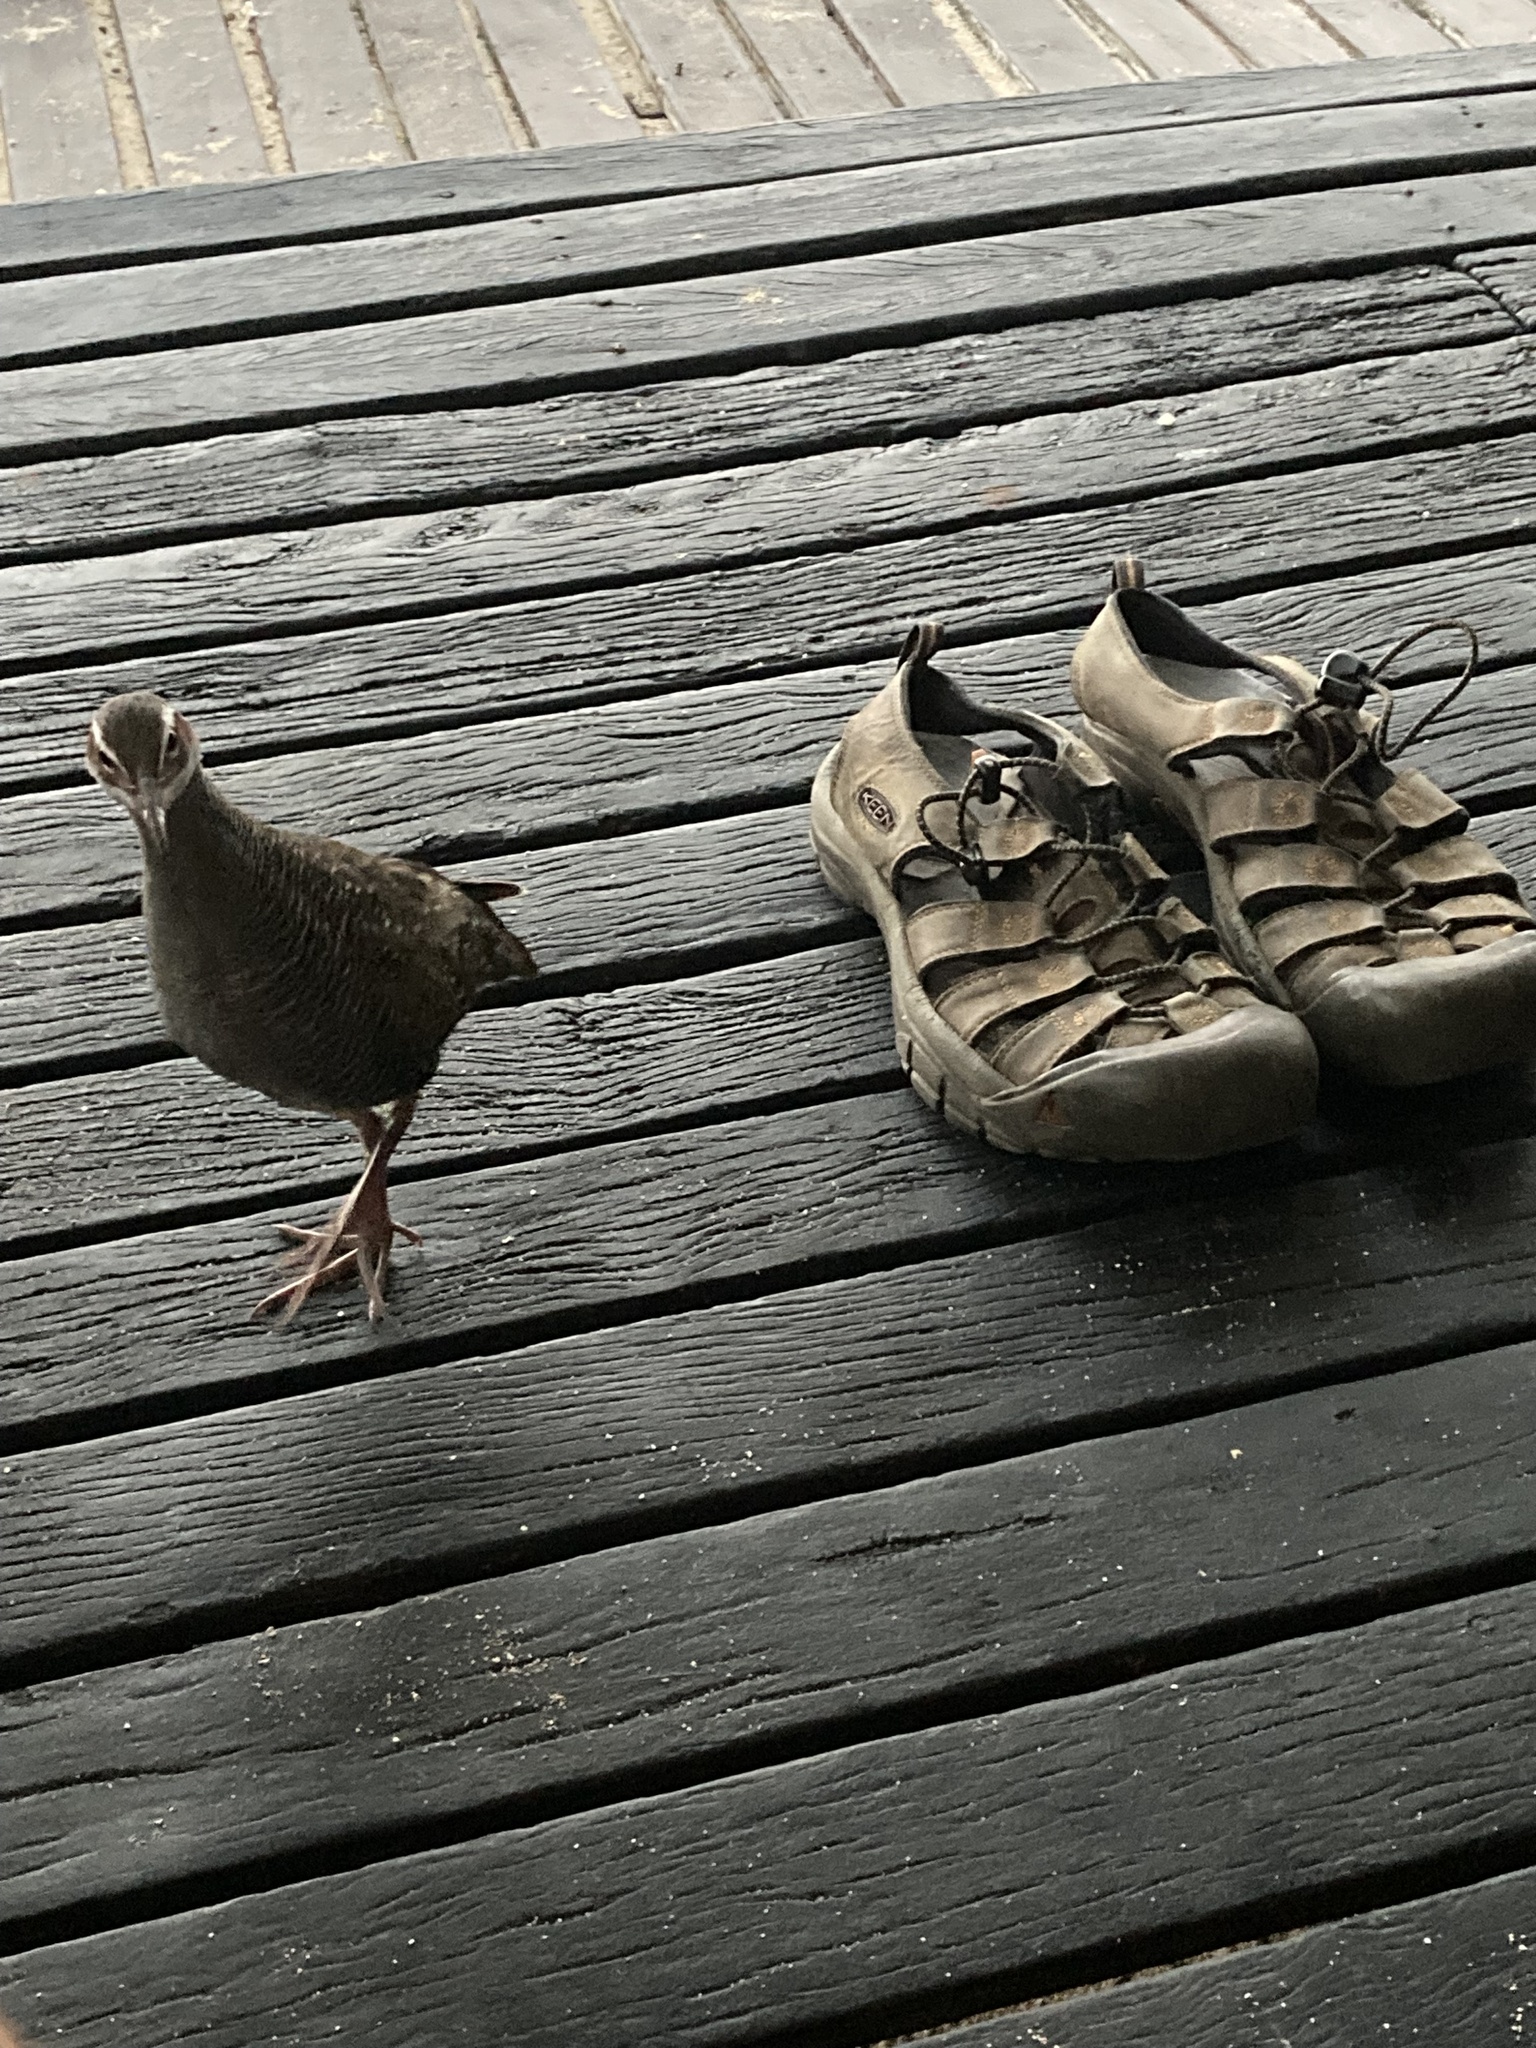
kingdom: Animalia
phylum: Chordata
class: Aves
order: Gruiformes
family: Rallidae
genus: Gallirallus
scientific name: Gallirallus philippensis
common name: Buff-banded rail
